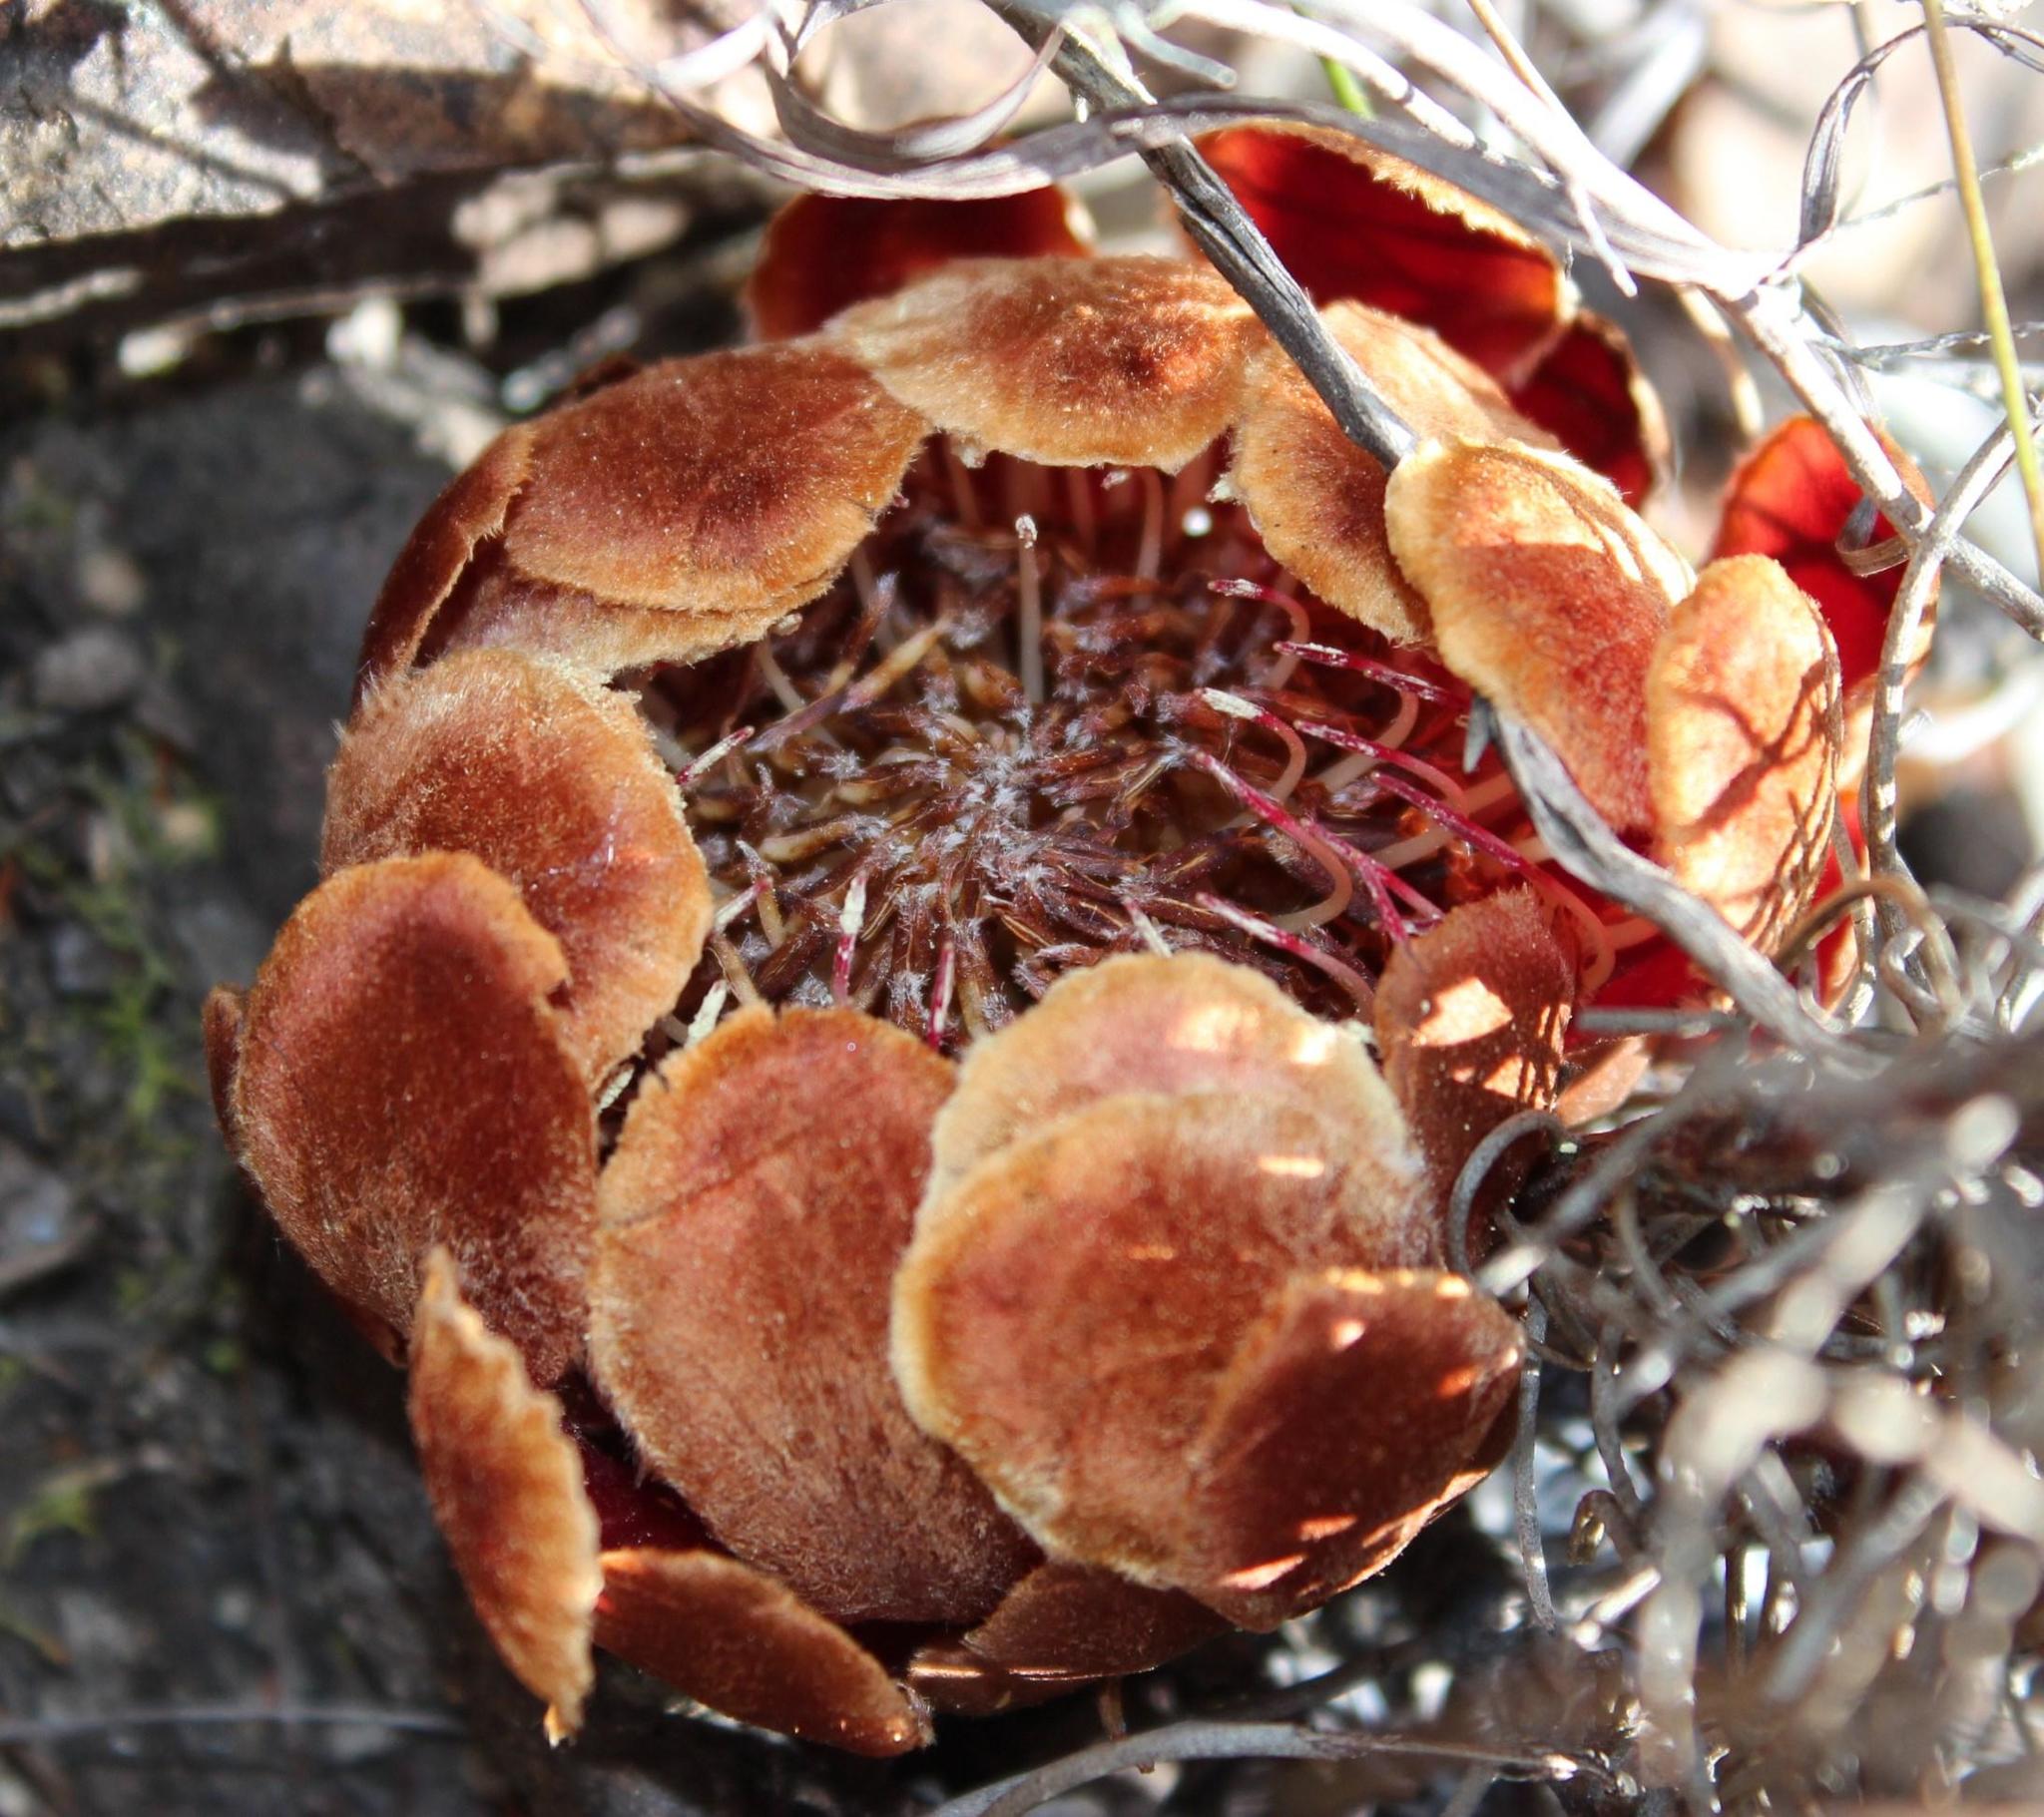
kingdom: Plantae
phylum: Tracheophyta
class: Magnoliopsida
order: Proteales
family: Proteaceae
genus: Protea
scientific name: Protea subulifolia
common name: Awl-leaf sugarbush
